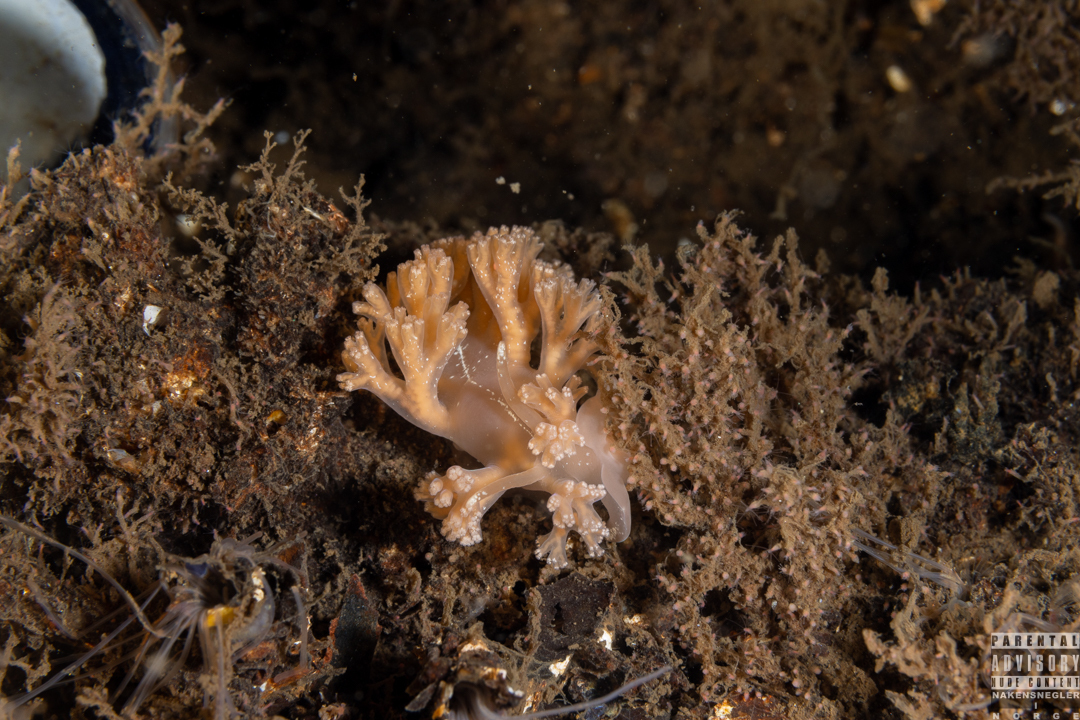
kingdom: Animalia
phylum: Mollusca
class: Gastropoda
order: Nudibranchia
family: Heroidae
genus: Hero
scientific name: Hero formosa
